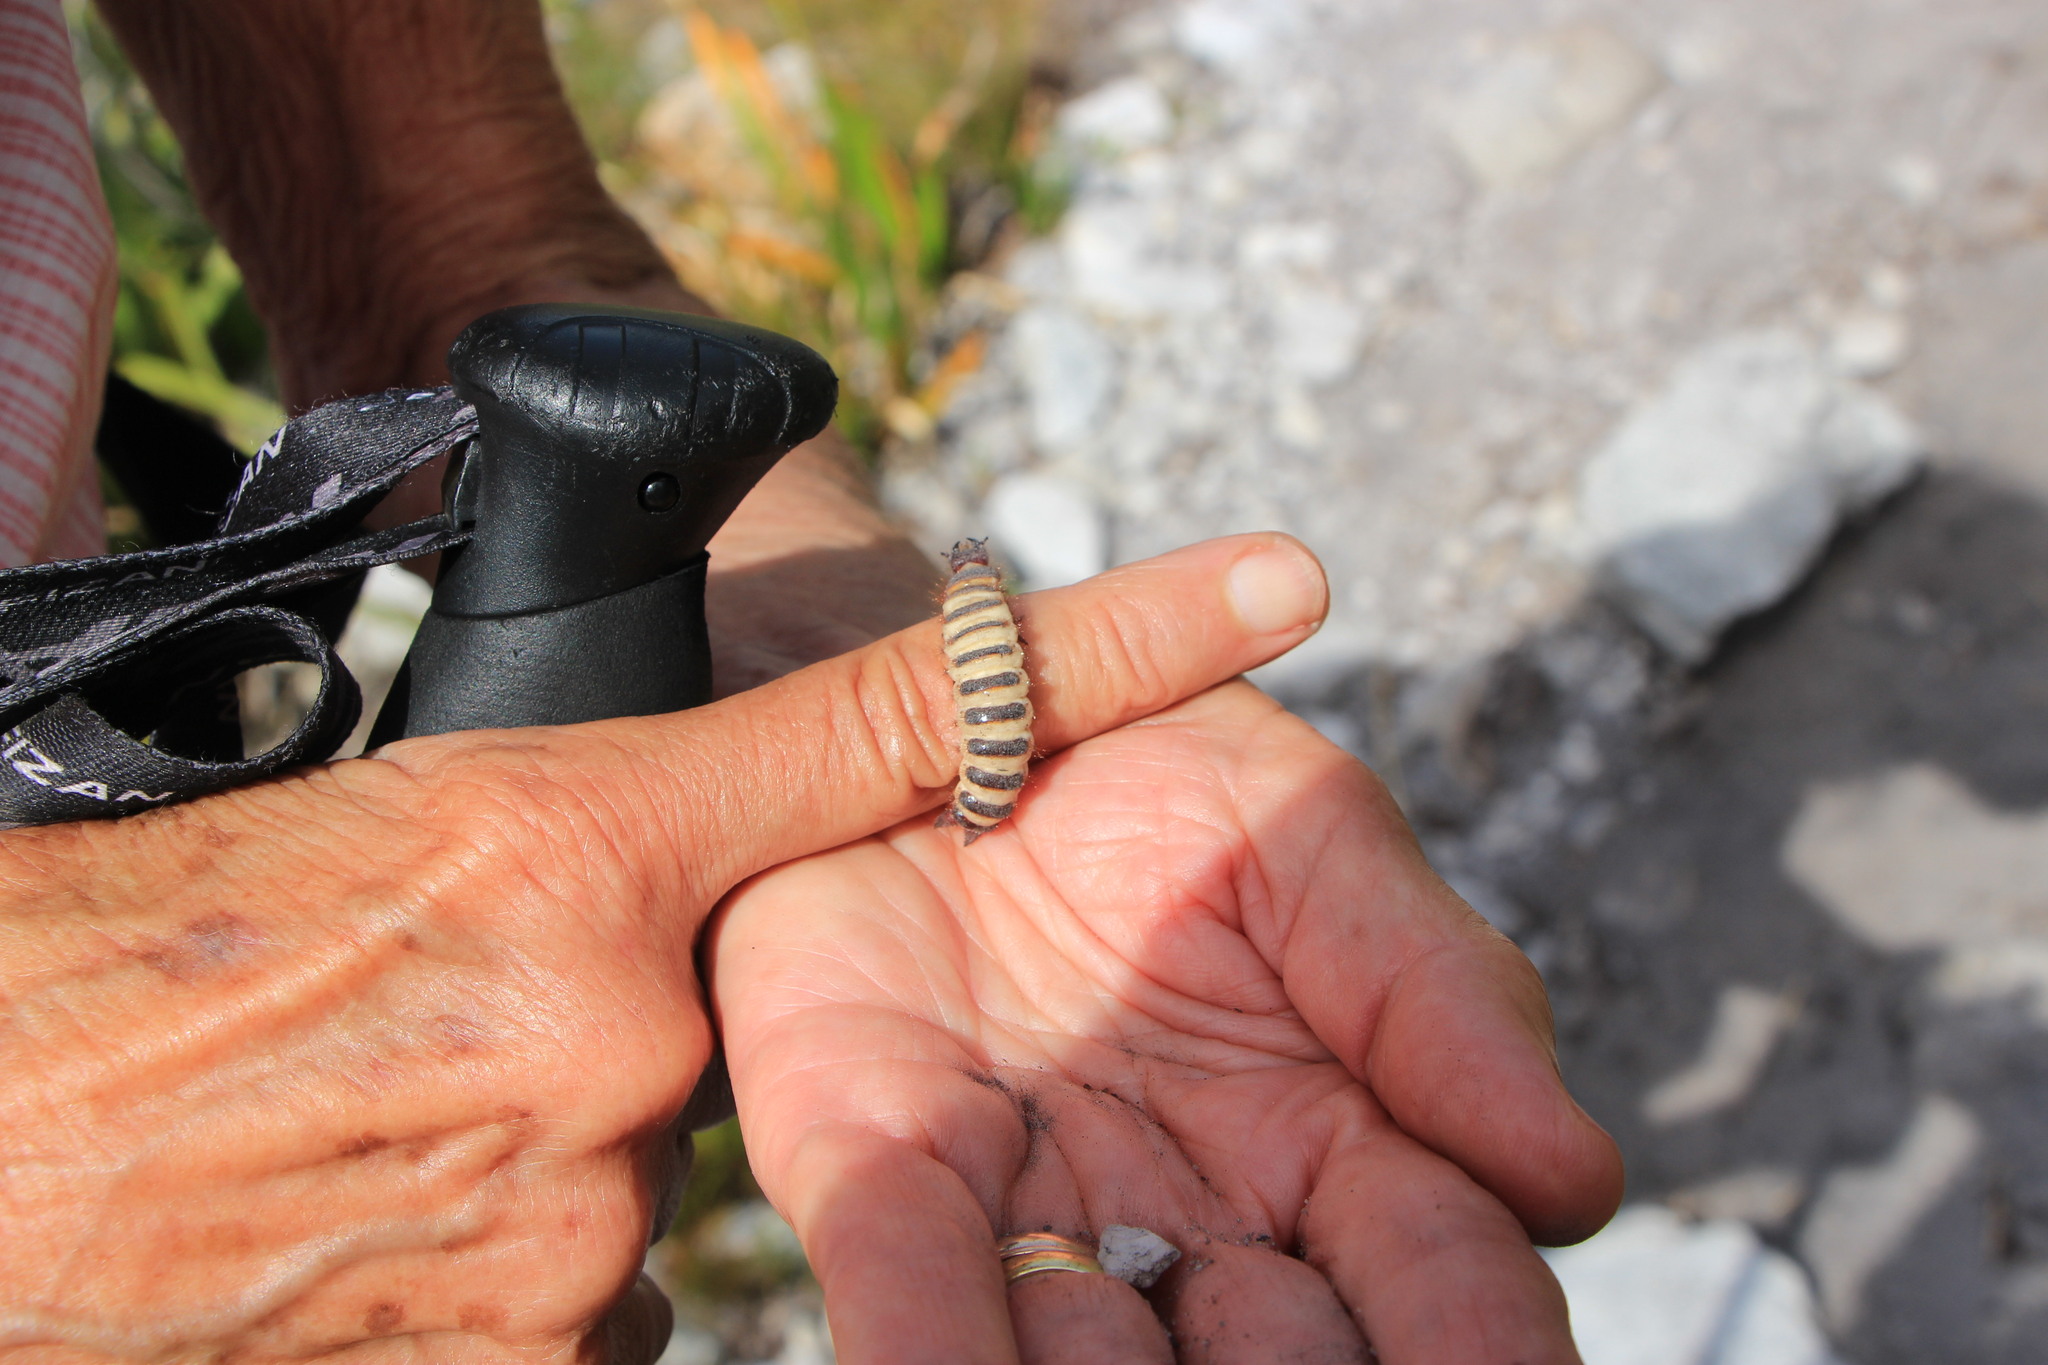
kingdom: Animalia
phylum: Arthropoda
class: Insecta
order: Coleoptera
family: Carabidae
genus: Anthia
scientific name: Anthia decemguttata
